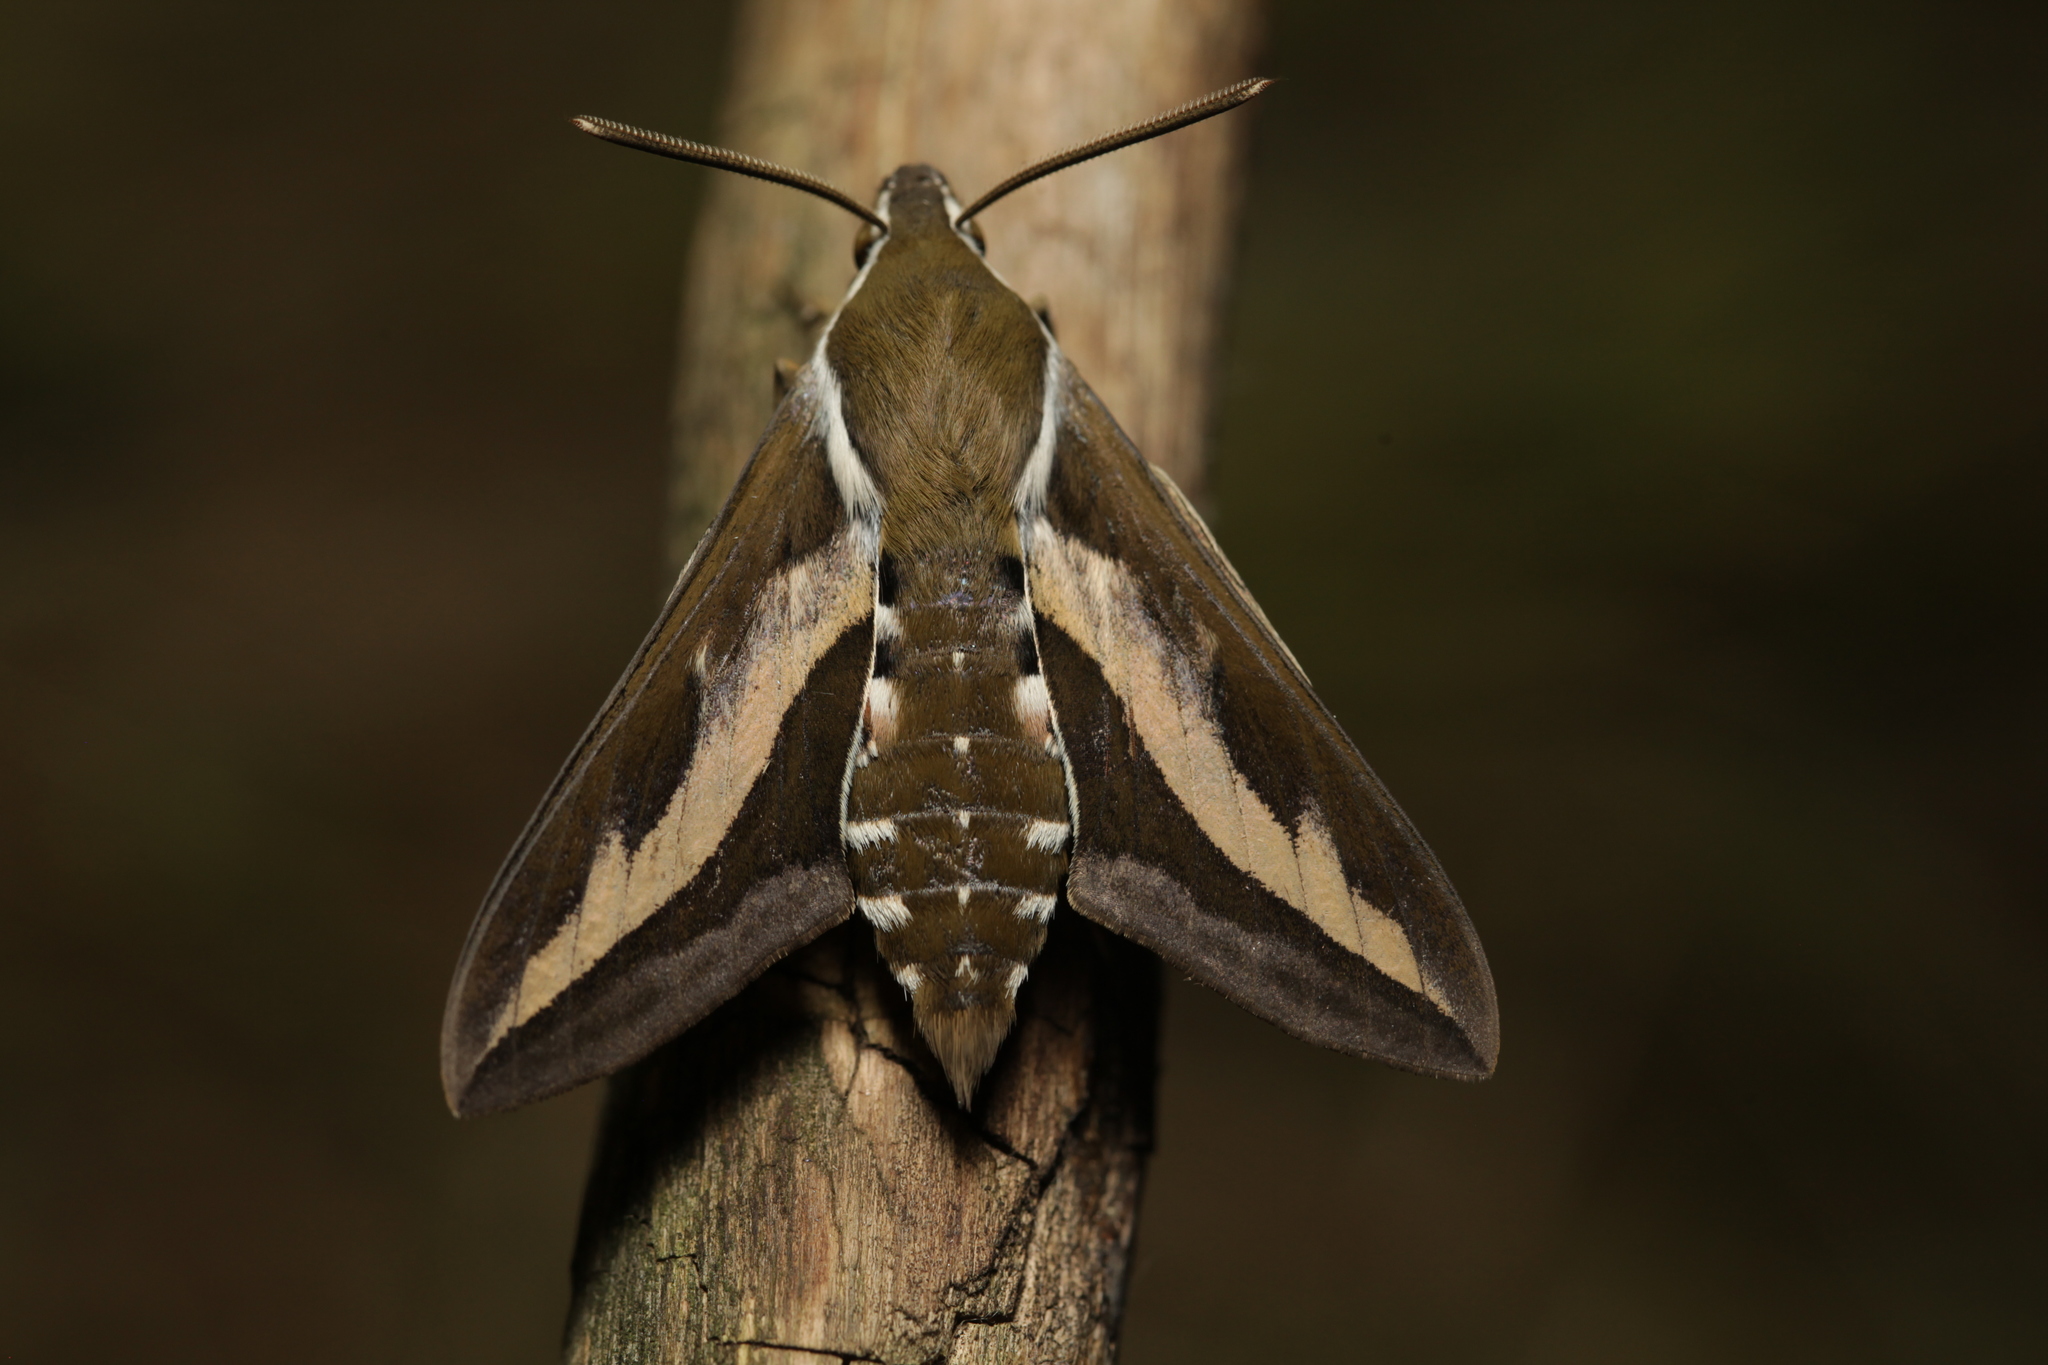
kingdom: Animalia
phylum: Arthropoda
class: Insecta
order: Lepidoptera
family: Sphingidae
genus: Hyles
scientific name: Hyles gallii
